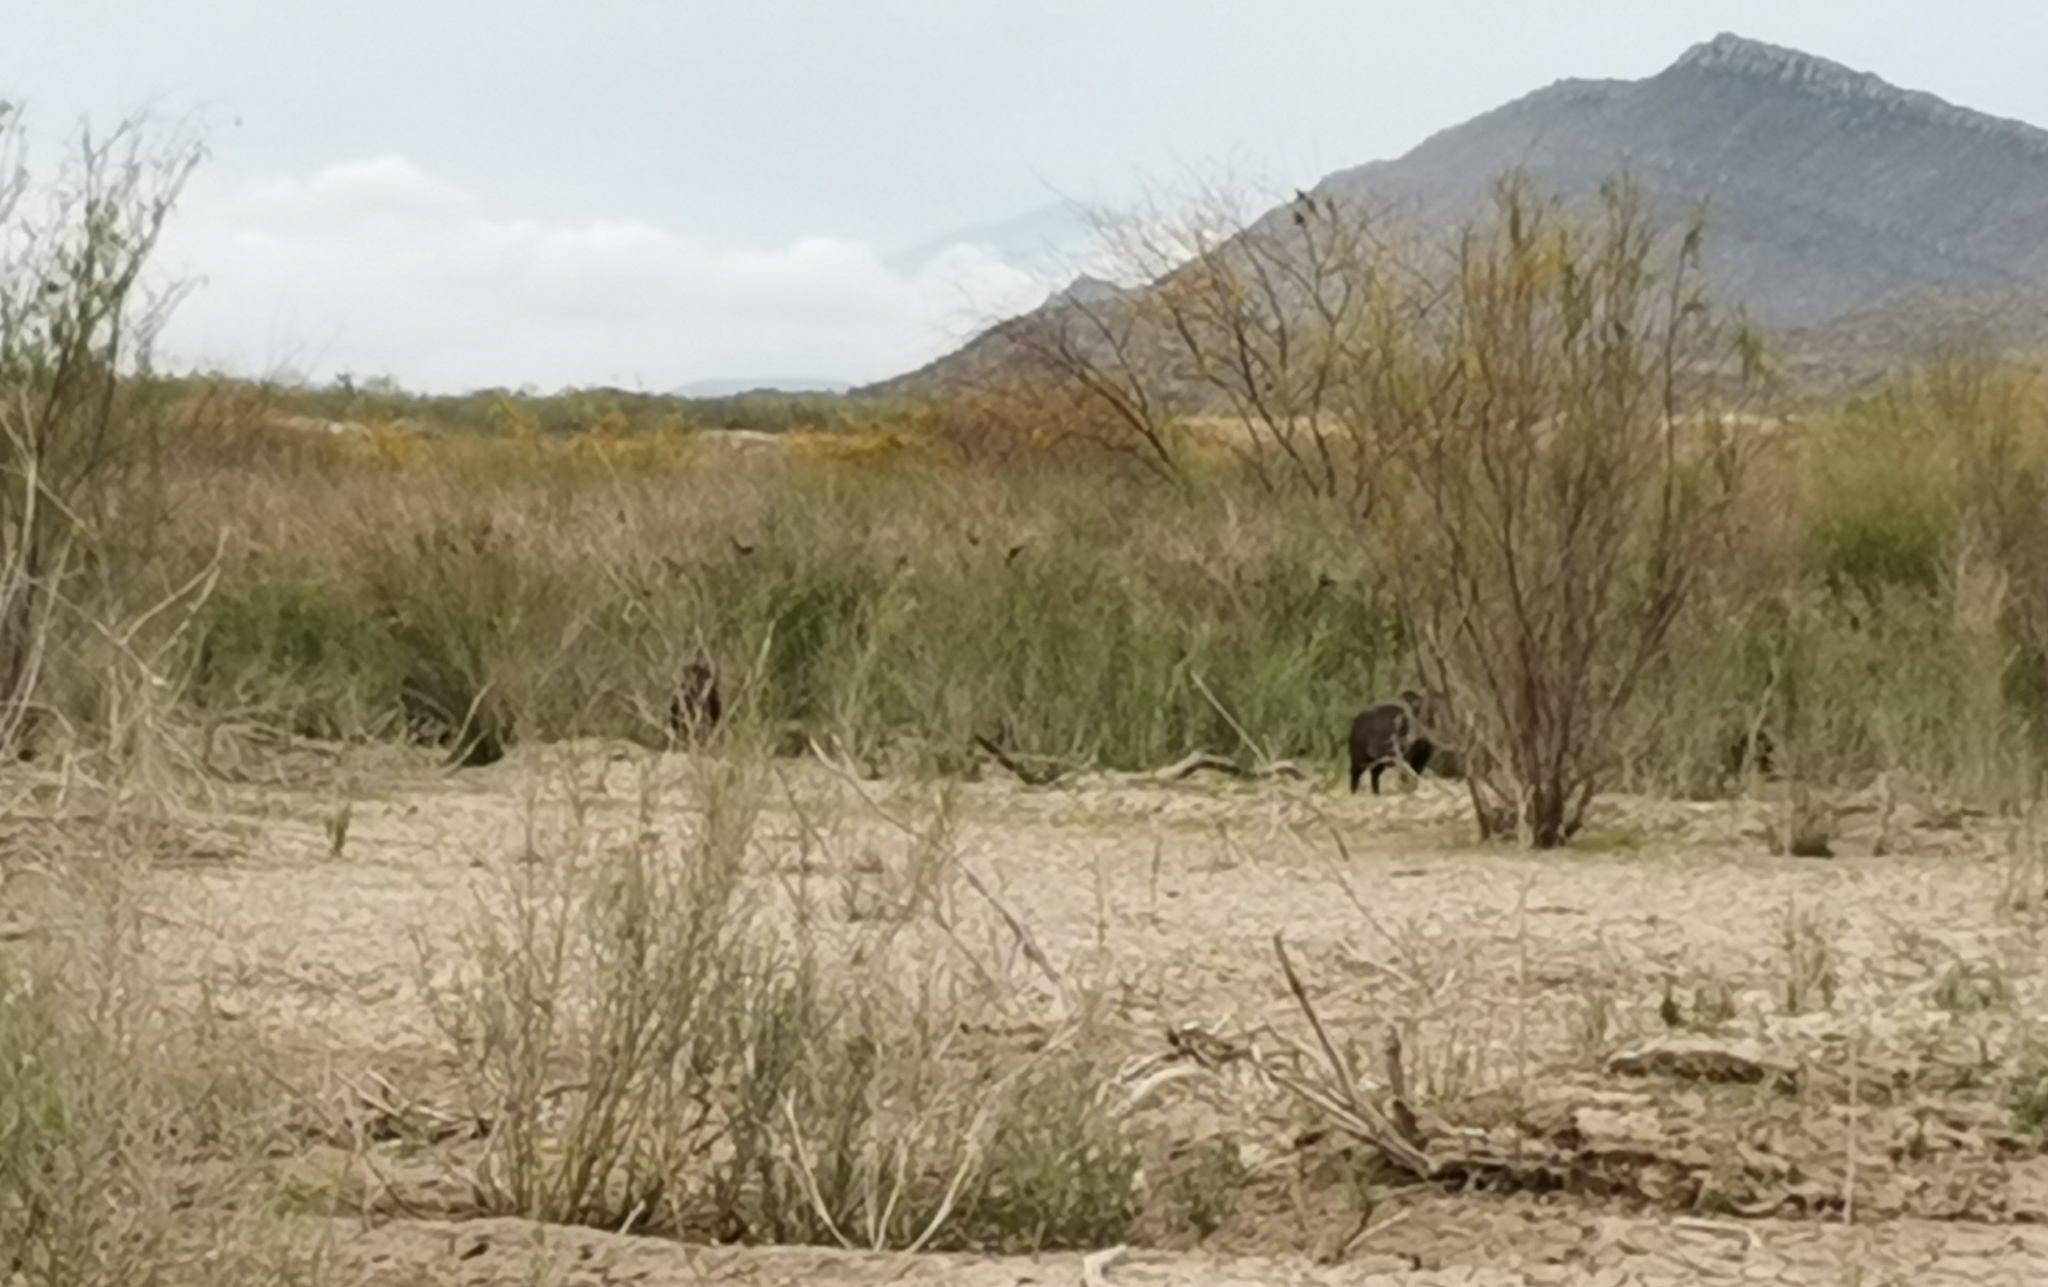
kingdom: Animalia
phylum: Chordata
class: Mammalia
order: Artiodactyla
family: Tayassuidae
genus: Pecari
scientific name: Pecari tajacu
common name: Collared peccary
